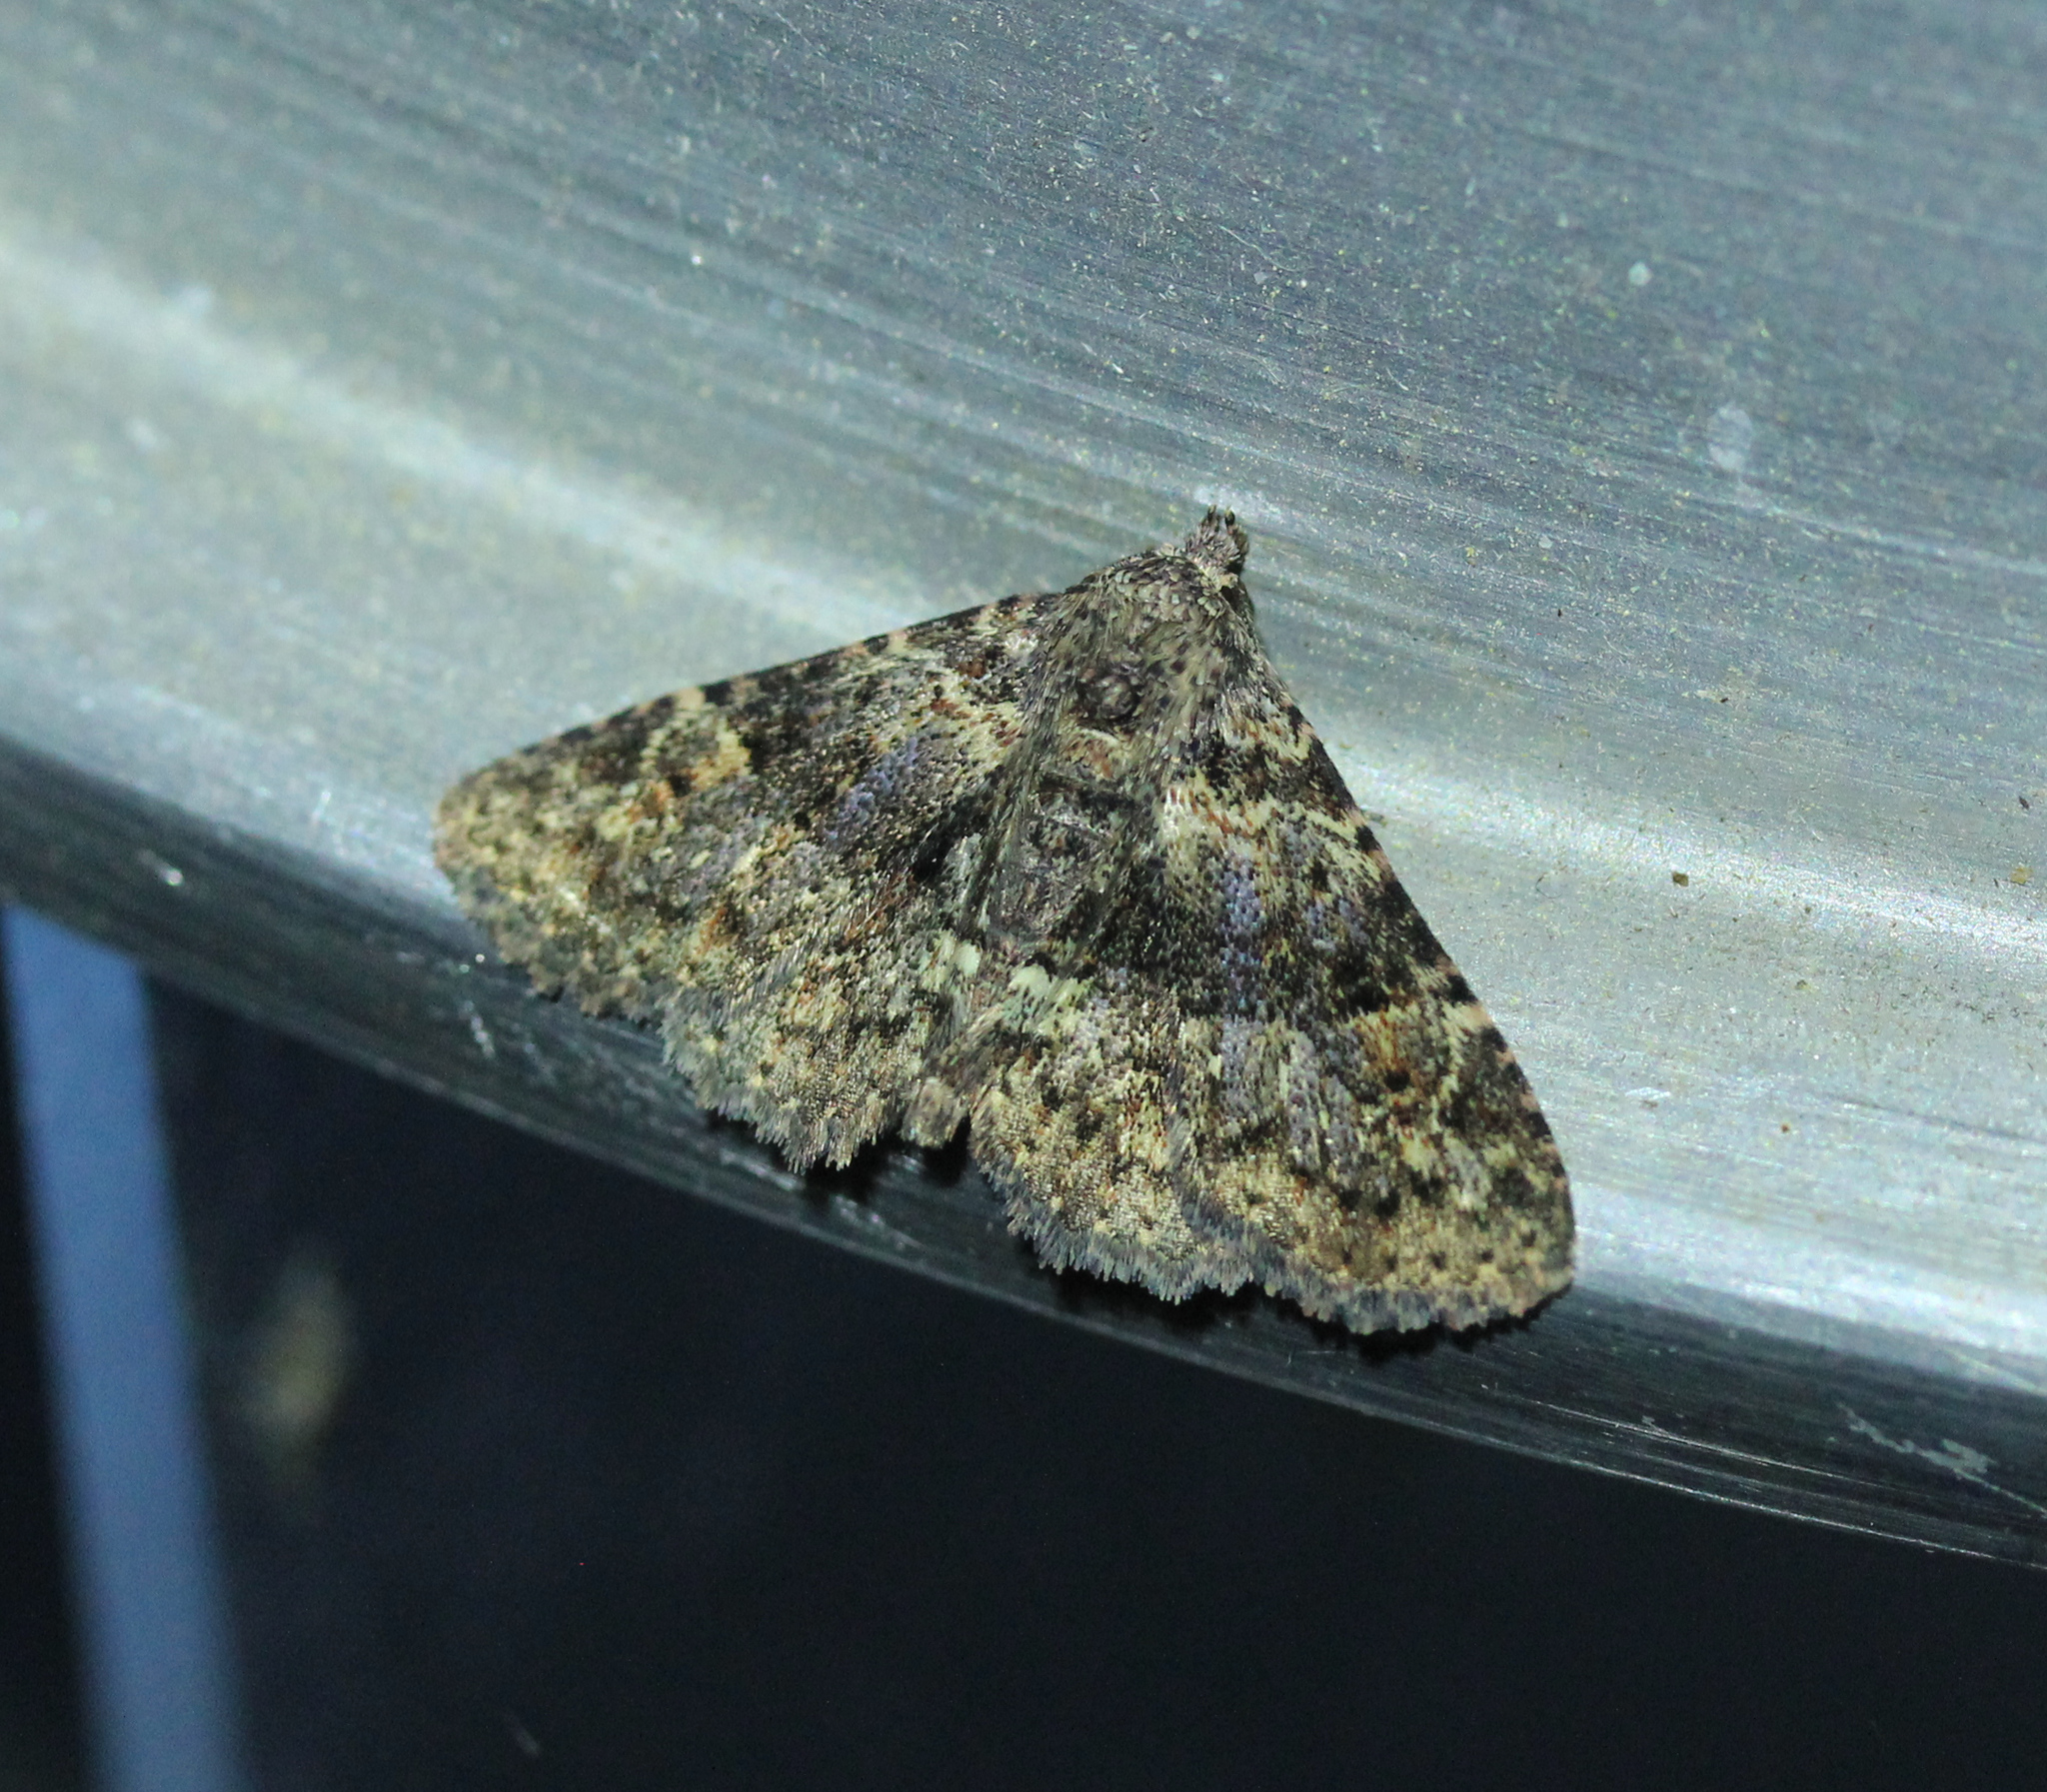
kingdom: Animalia
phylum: Arthropoda
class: Insecta
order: Lepidoptera
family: Erebidae
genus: Metalectra
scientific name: Metalectra discalis
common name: Common fungus moth
